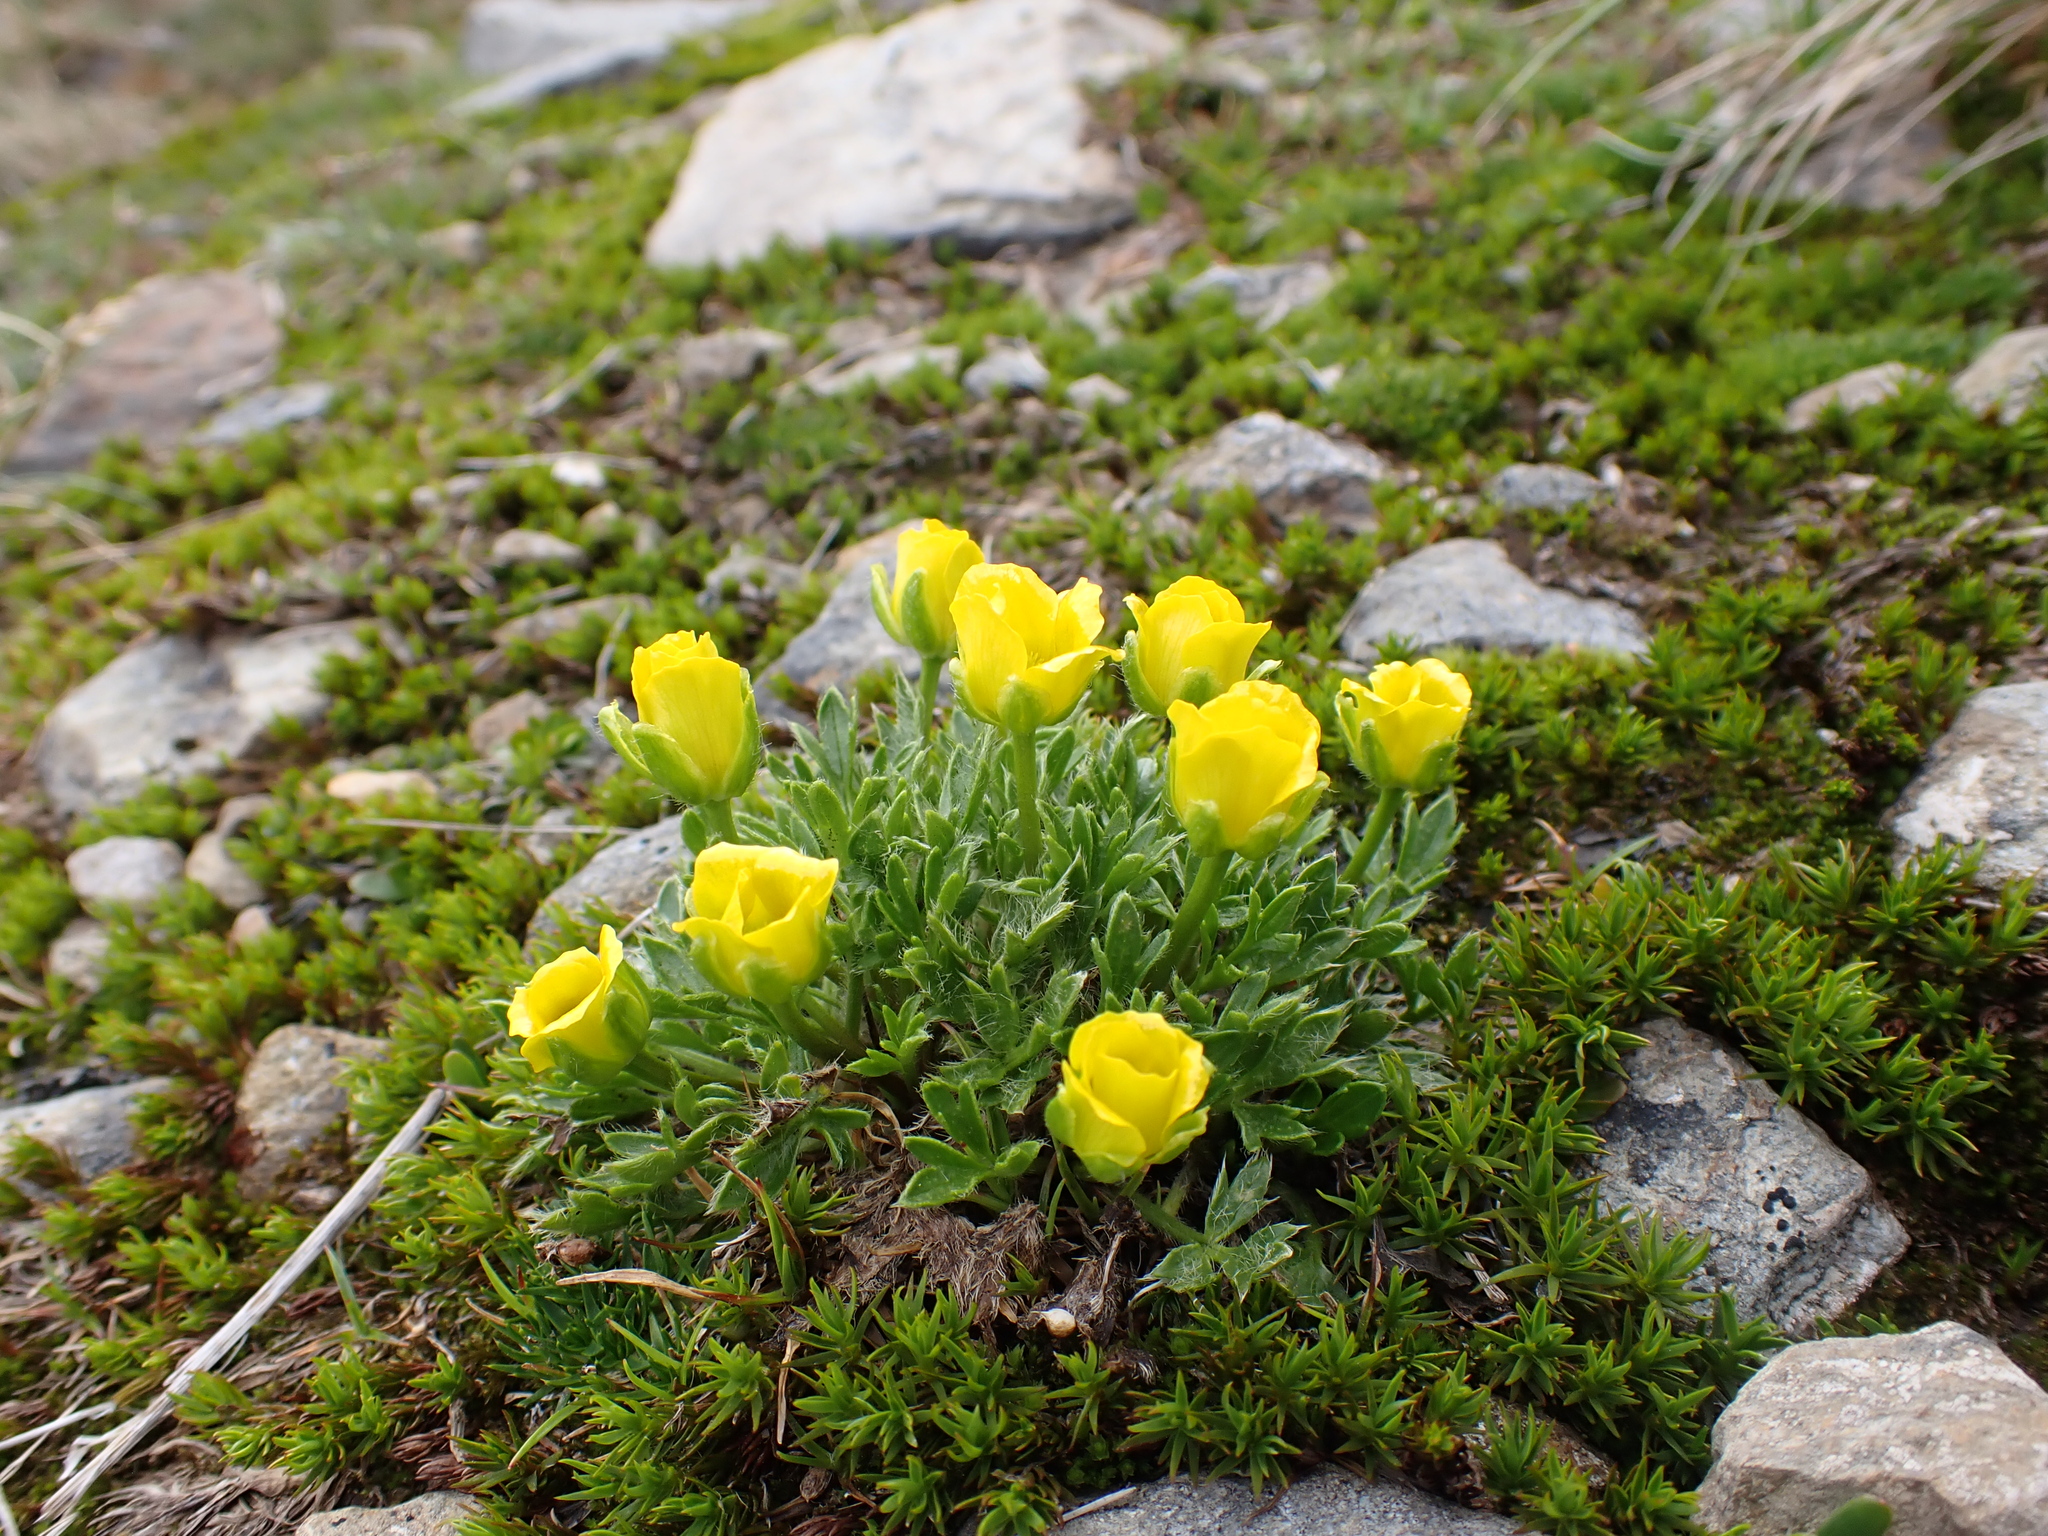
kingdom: Plantae
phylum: Tracheophyta
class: Magnoliopsida
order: Ranunculales
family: Ranunculaceae
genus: Ranunculus
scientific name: Ranunculus niphophilus
